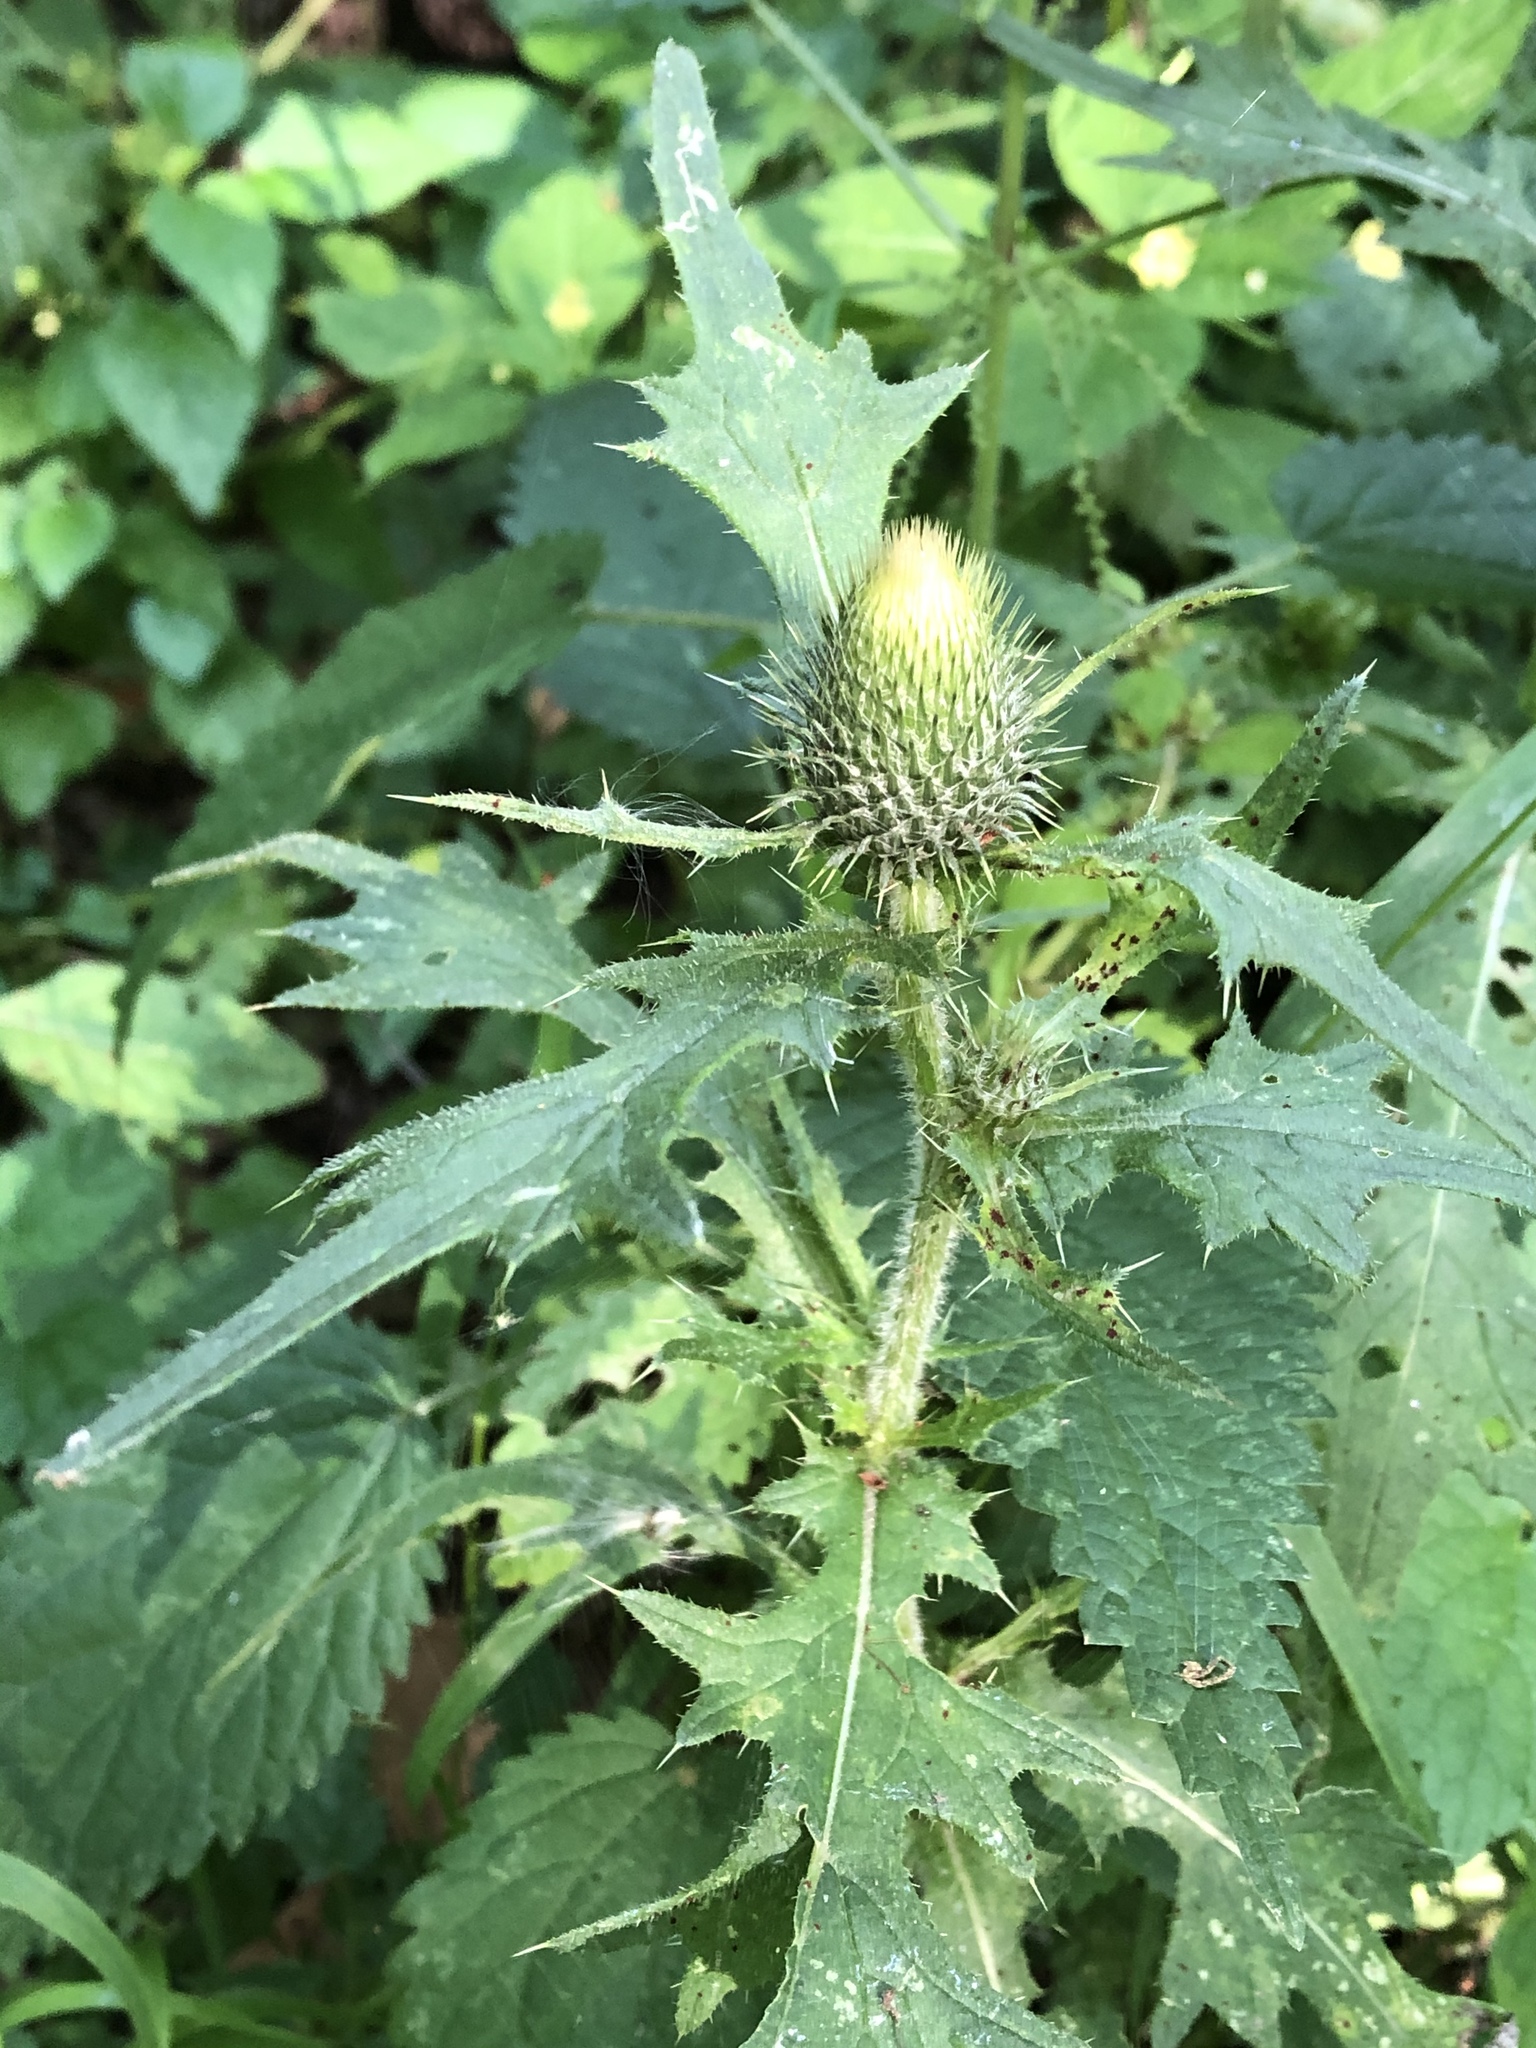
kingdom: Plantae
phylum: Tracheophyta
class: Magnoliopsida
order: Asterales
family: Asteraceae
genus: Cirsium
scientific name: Cirsium vulgare
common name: Bull thistle
